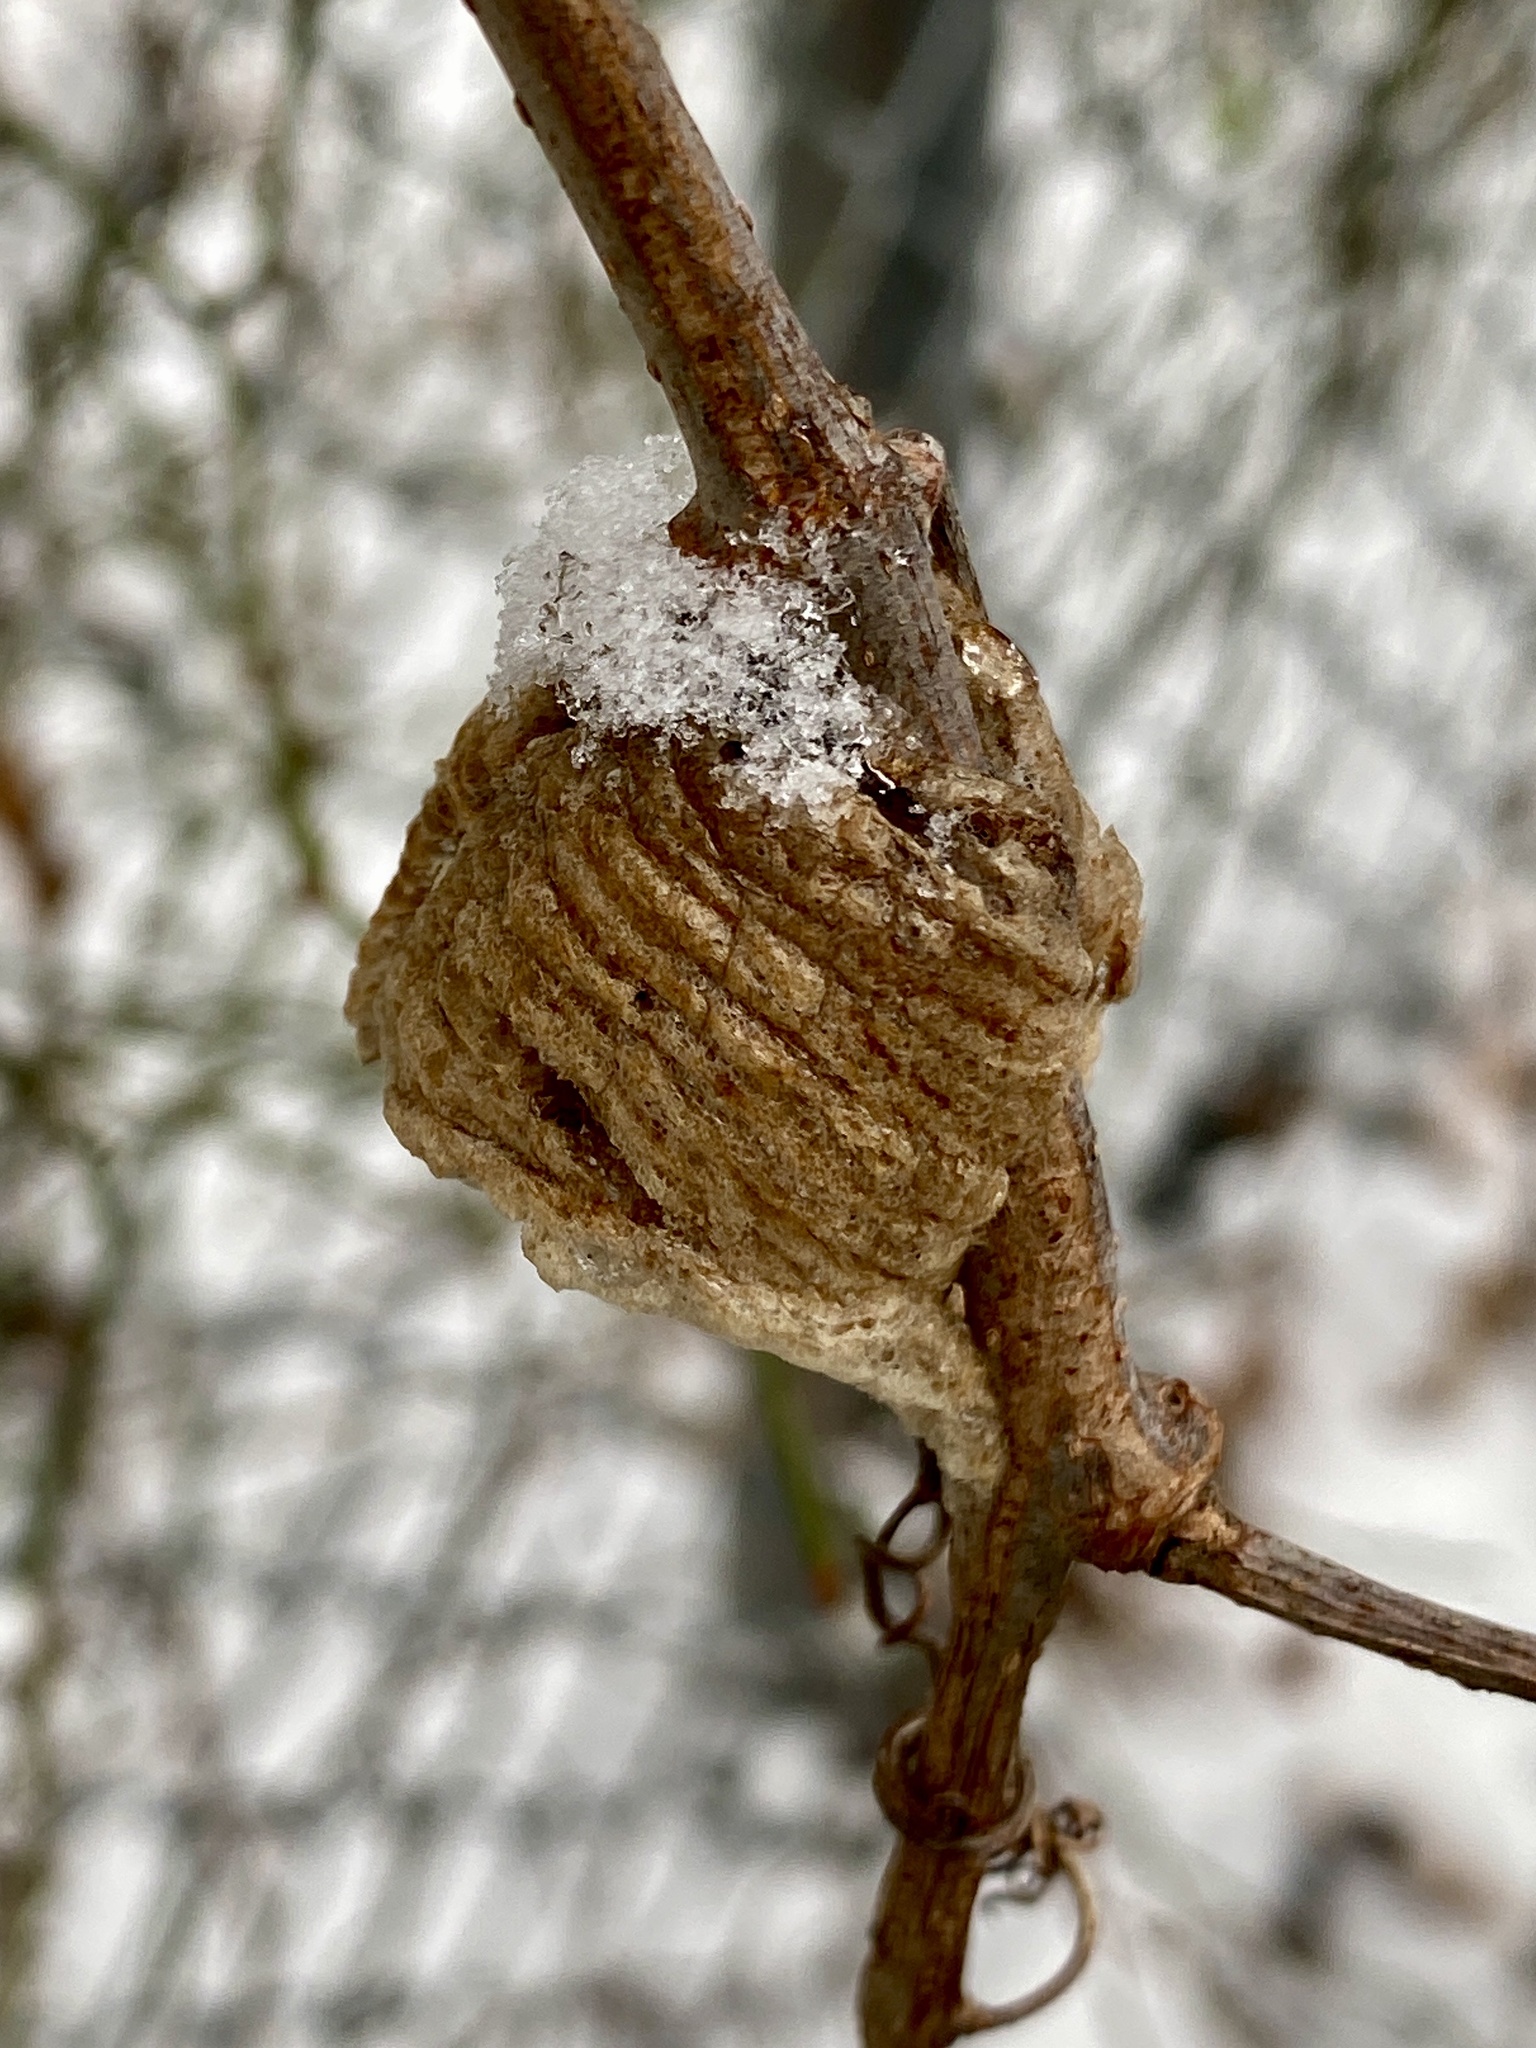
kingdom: Animalia
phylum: Arthropoda
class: Insecta
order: Mantodea
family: Mantidae
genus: Tenodera
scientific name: Tenodera sinensis
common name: Chinese mantis
